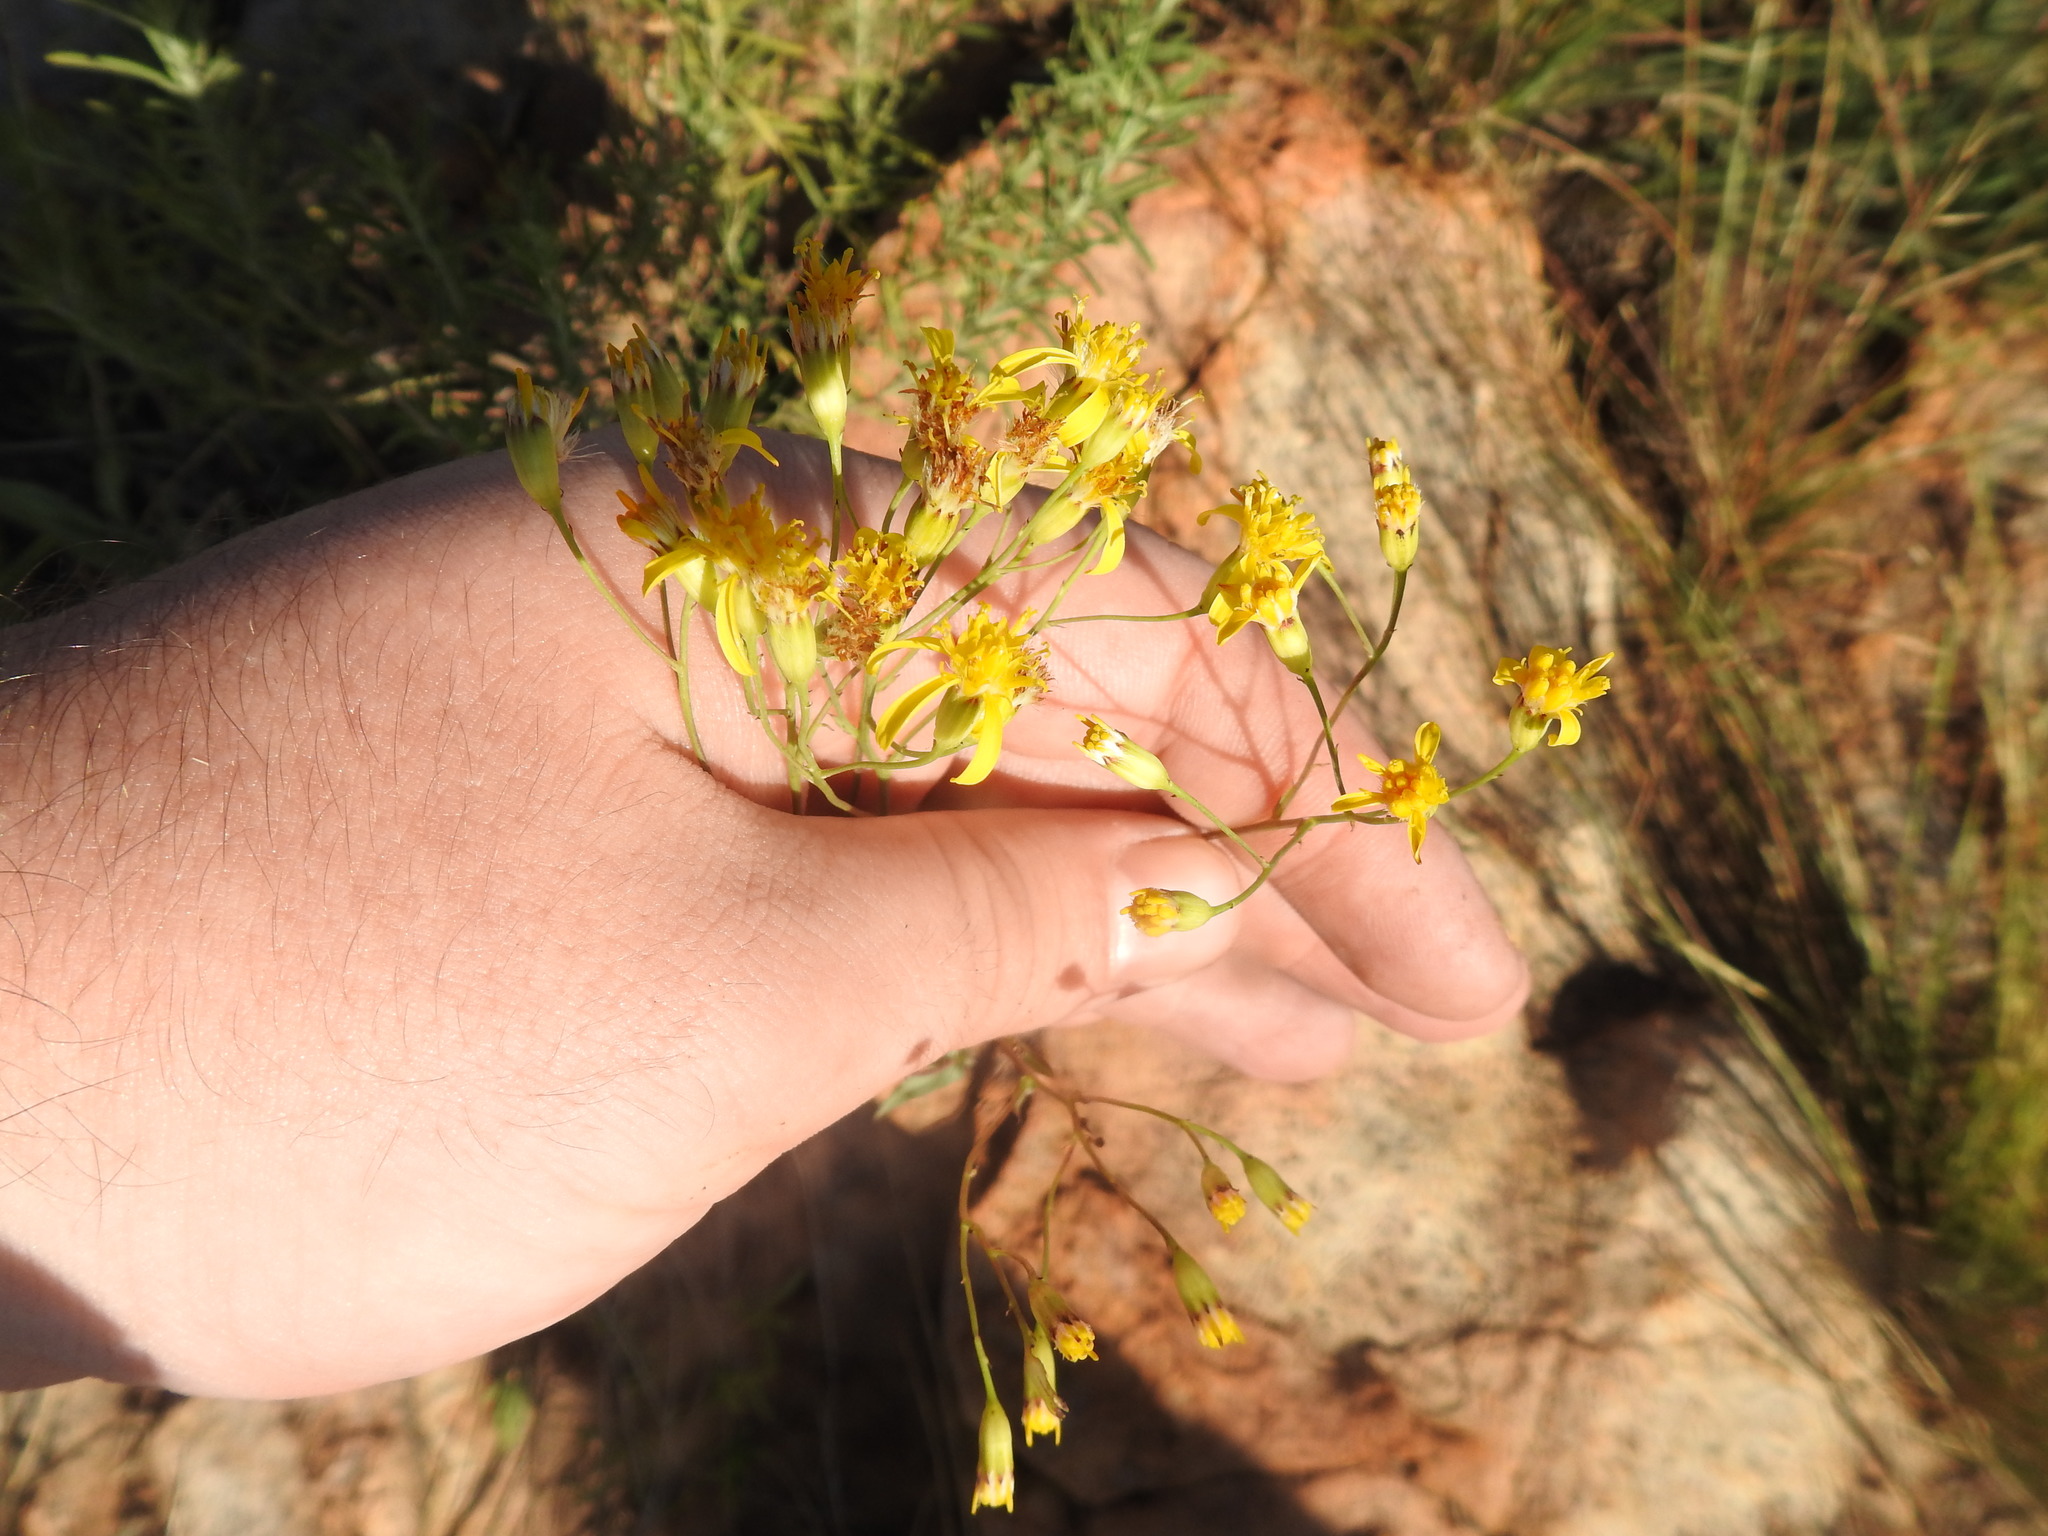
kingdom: Plantae
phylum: Tracheophyta
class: Magnoliopsida
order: Asterales
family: Asteraceae
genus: Senecio
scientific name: Senecio venosus
